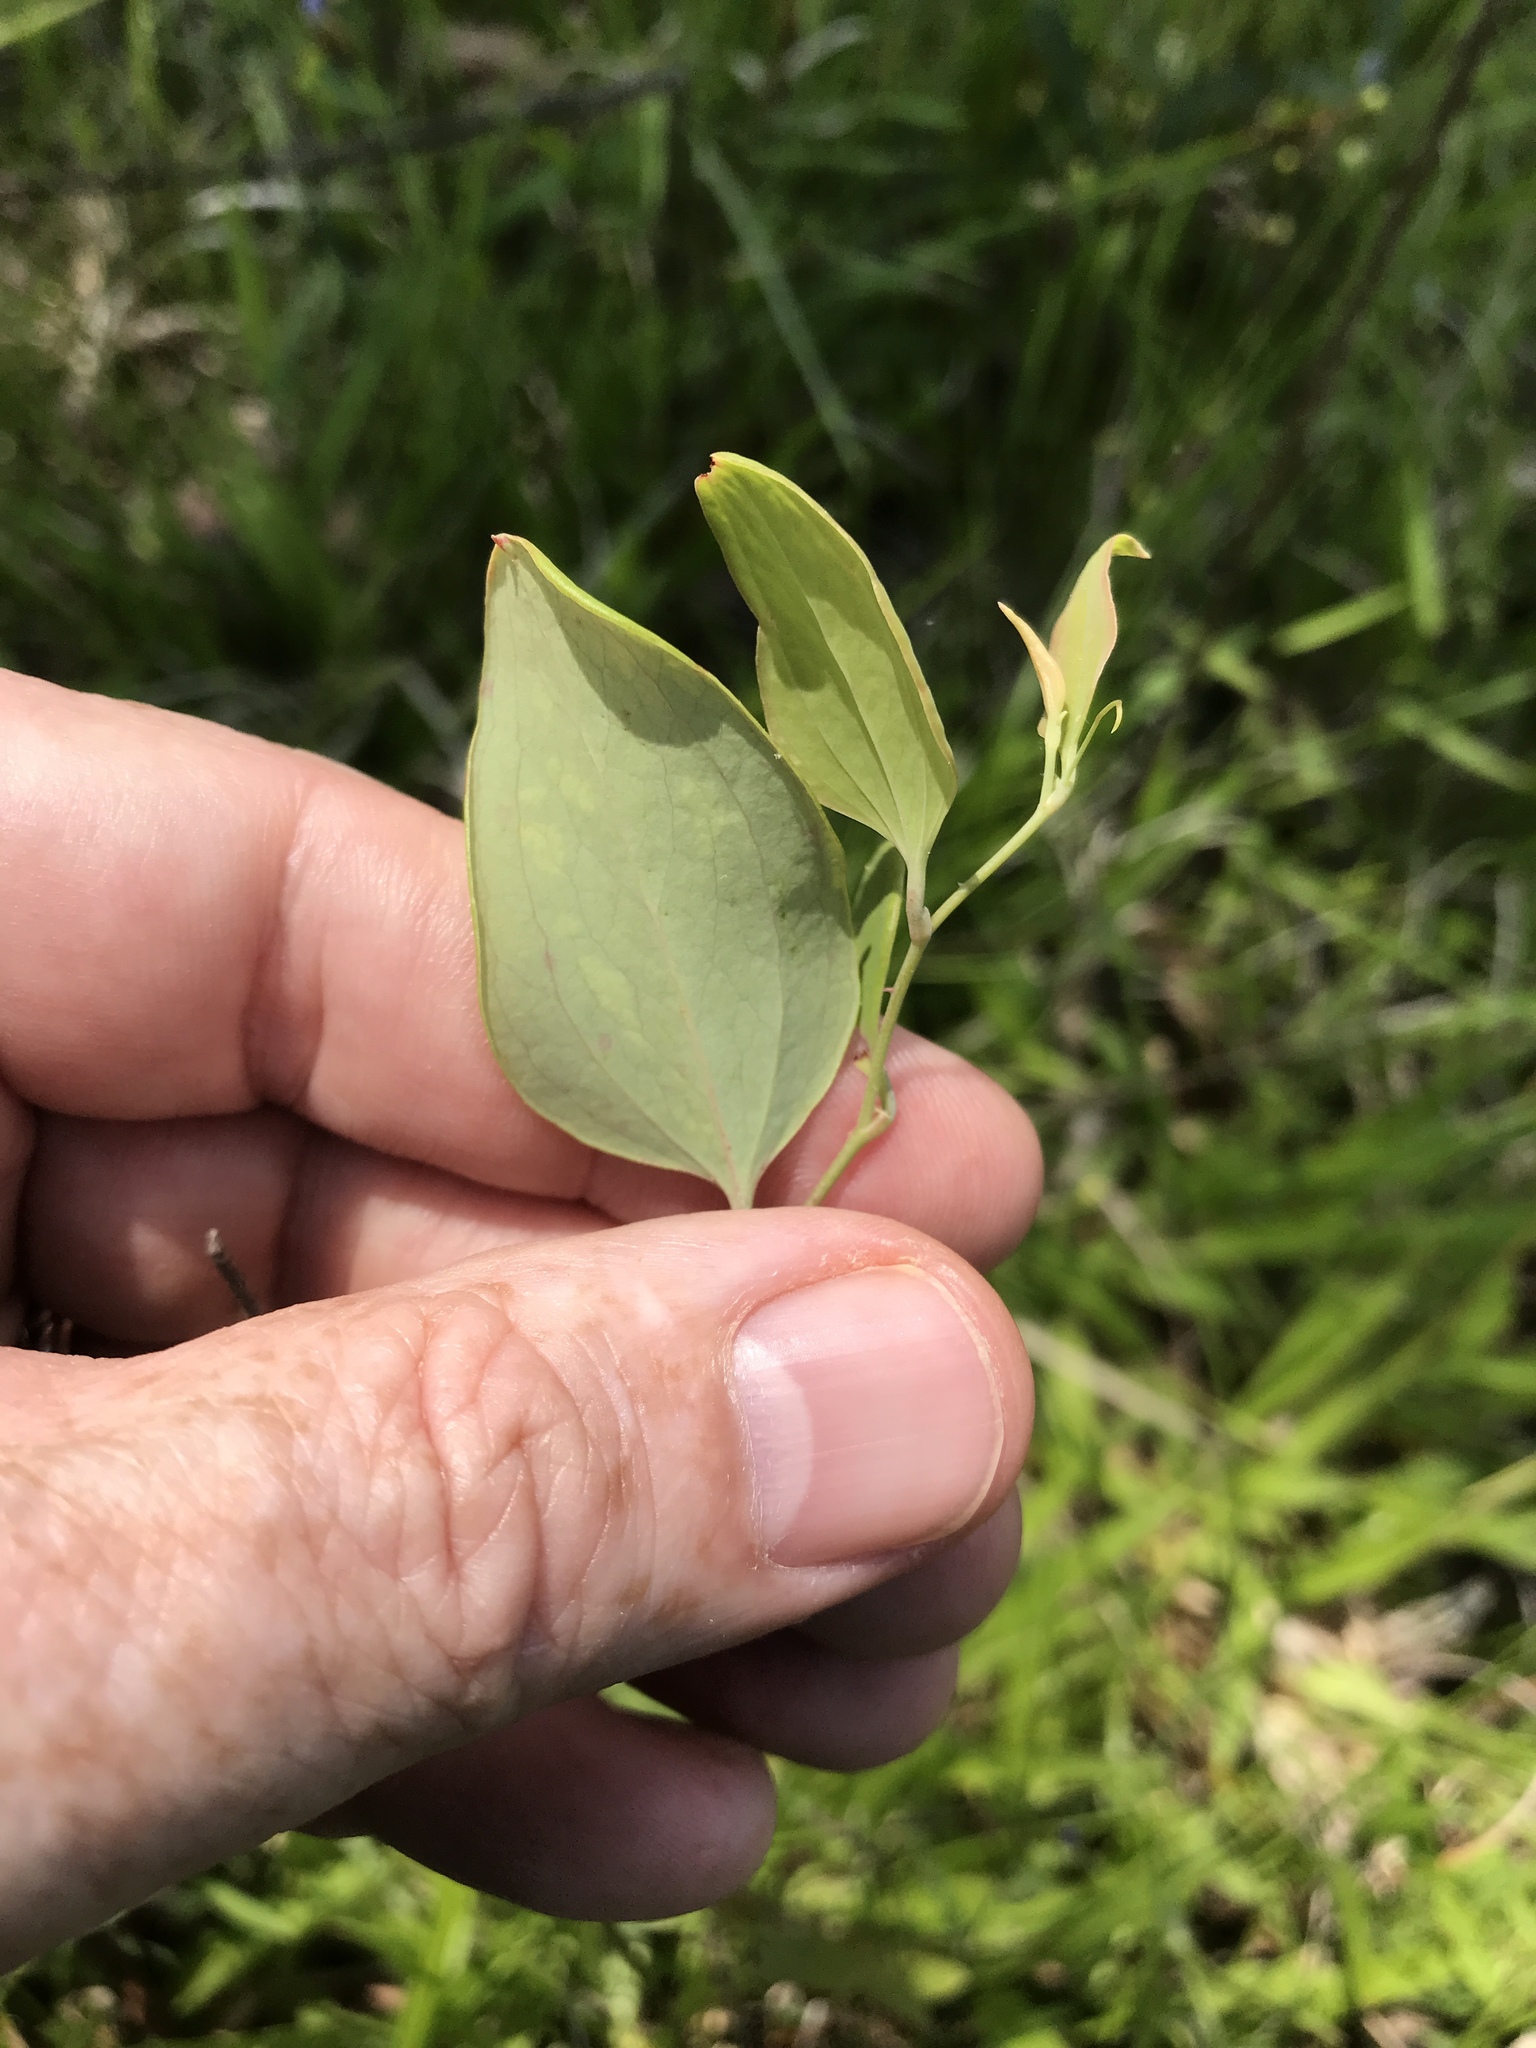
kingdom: Plantae
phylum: Tracheophyta
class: Liliopsida
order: Liliales
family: Smilacaceae
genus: Smilax
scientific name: Smilax glauca
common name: Cat greenbrier
